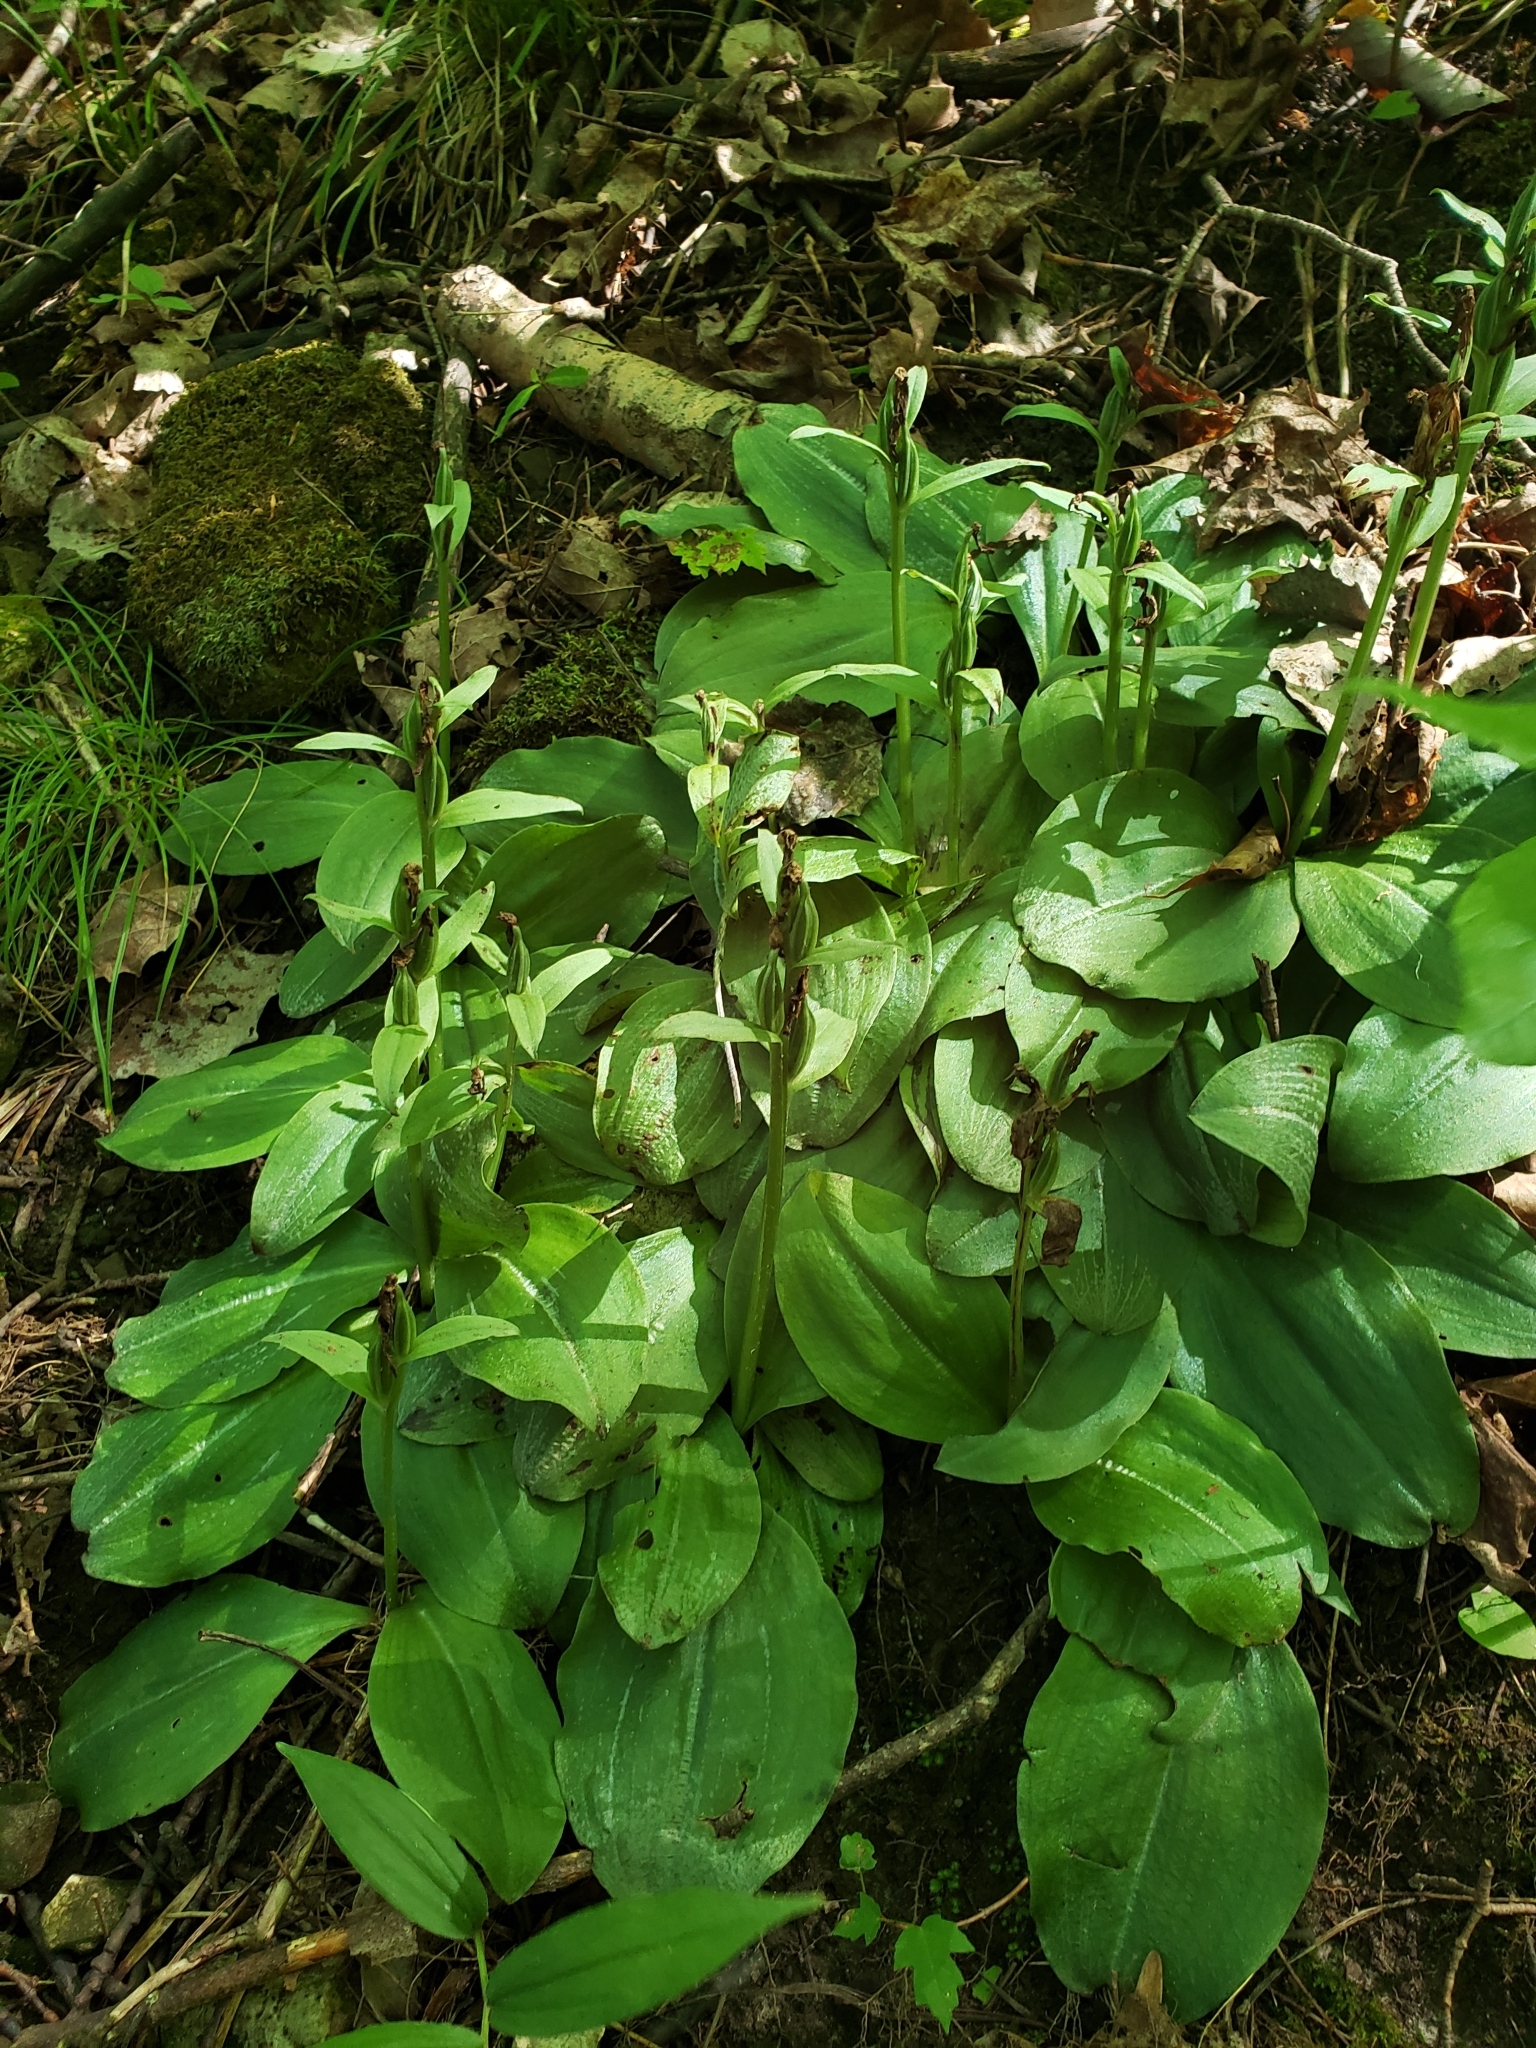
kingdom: Plantae
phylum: Tracheophyta
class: Liliopsida
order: Asparagales
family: Orchidaceae
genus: Galearis
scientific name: Galearis spectabilis
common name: Purple-hooded orchis
